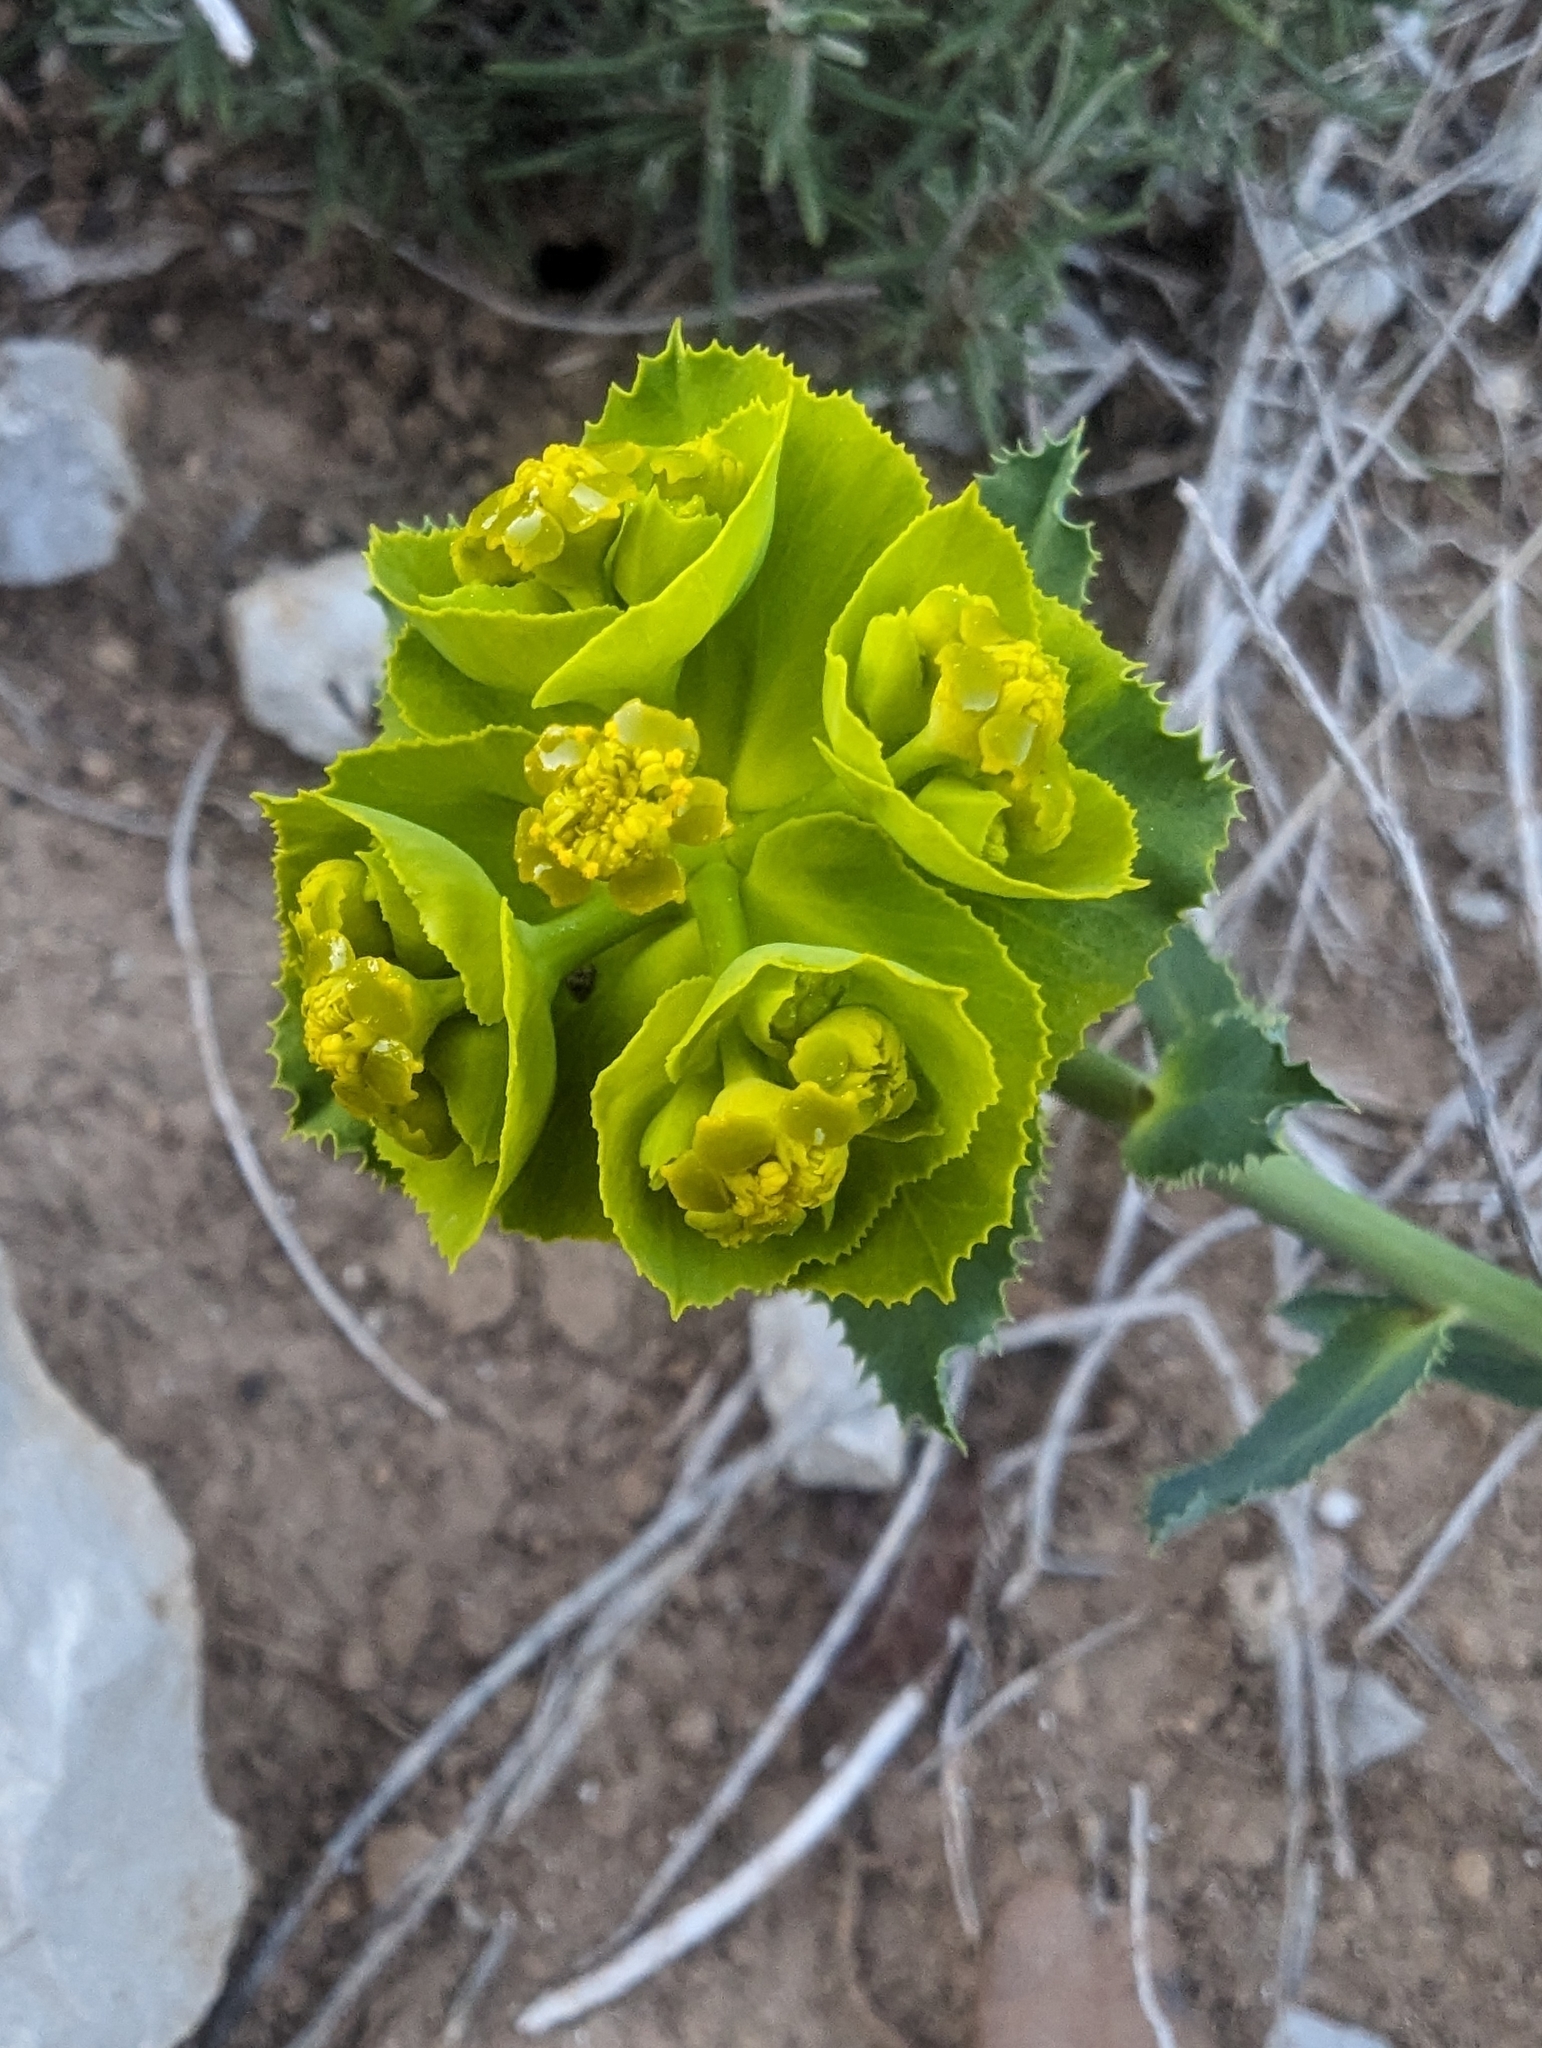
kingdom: Plantae
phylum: Tracheophyta
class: Magnoliopsida
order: Malpighiales
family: Euphorbiaceae
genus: Euphorbia
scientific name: Euphorbia serrata
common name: Serrate spurge
